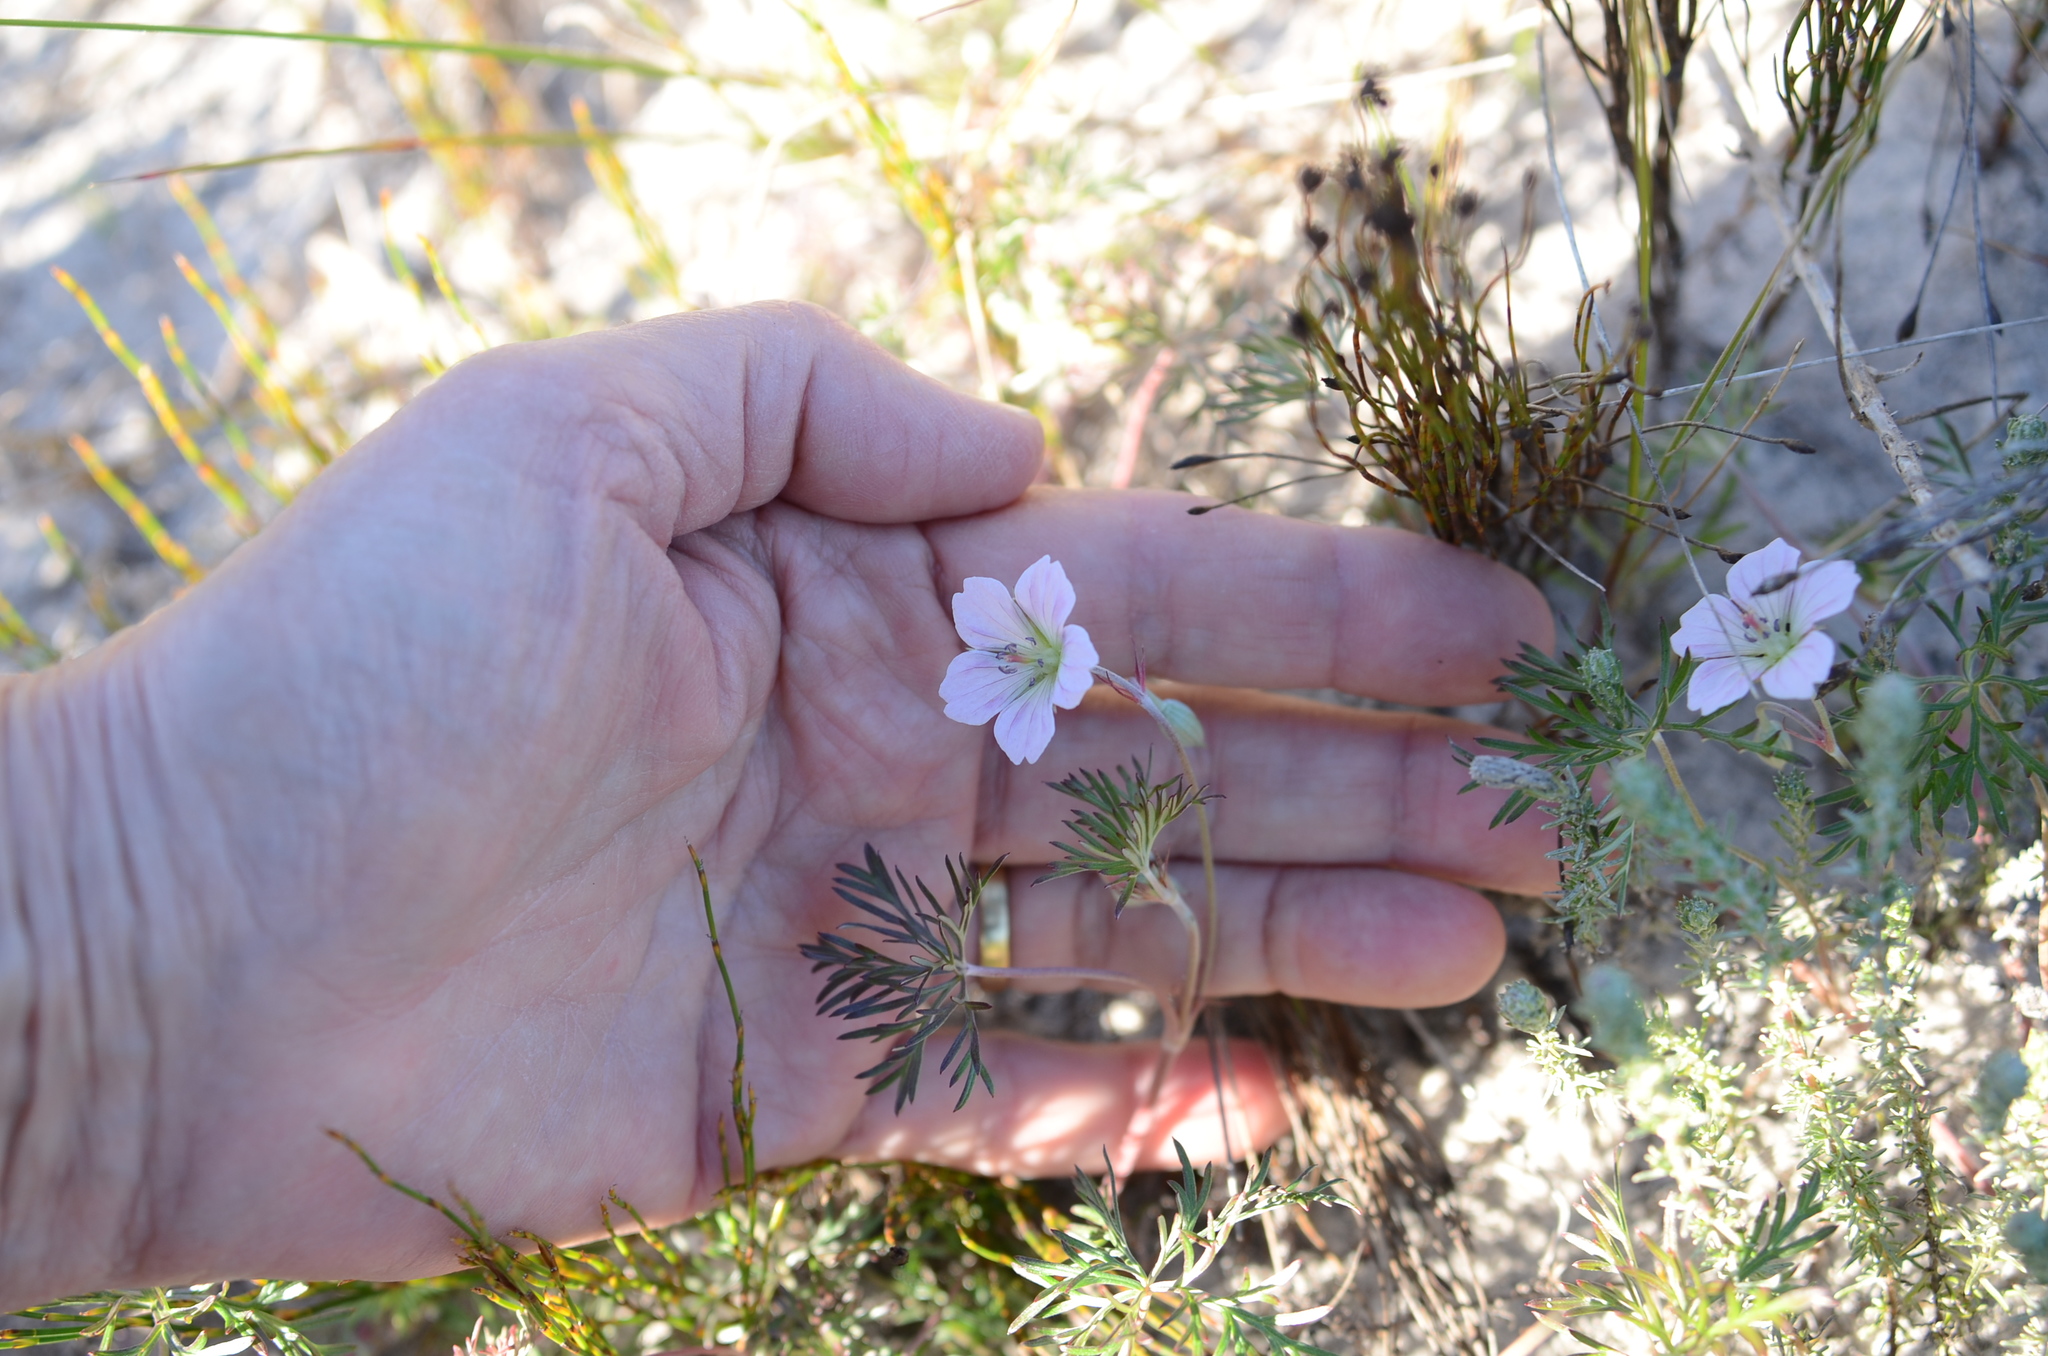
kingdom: Plantae
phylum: Tracheophyta
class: Magnoliopsida
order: Geraniales
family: Geraniaceae
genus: Geranium
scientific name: Geranium incanum
